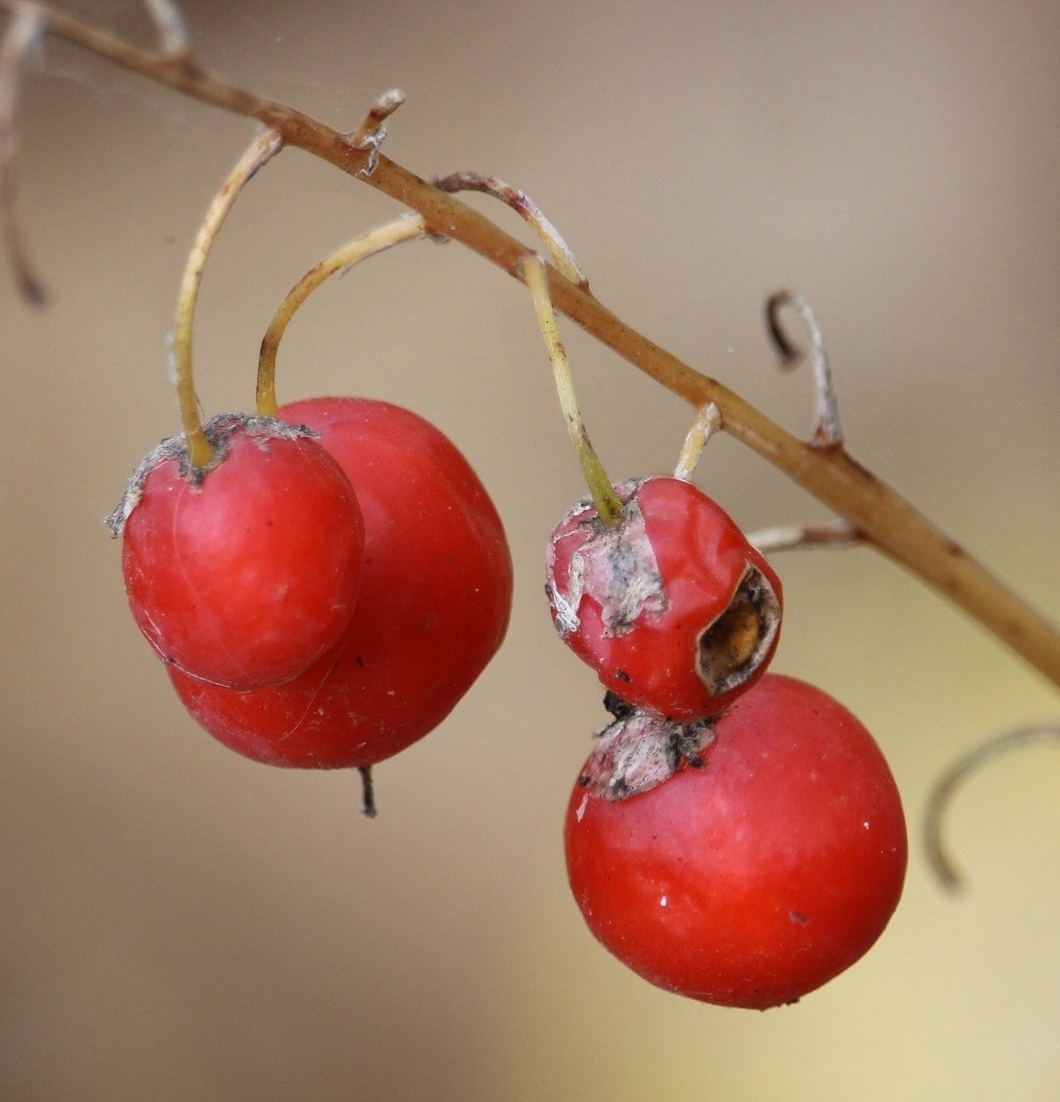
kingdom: Plantae
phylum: Tracheophyta
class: Liliopsida
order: Asparagales
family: Asparagaceae
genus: Convallaria
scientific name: Convallaria majalis
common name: Lily-of-the-valley
